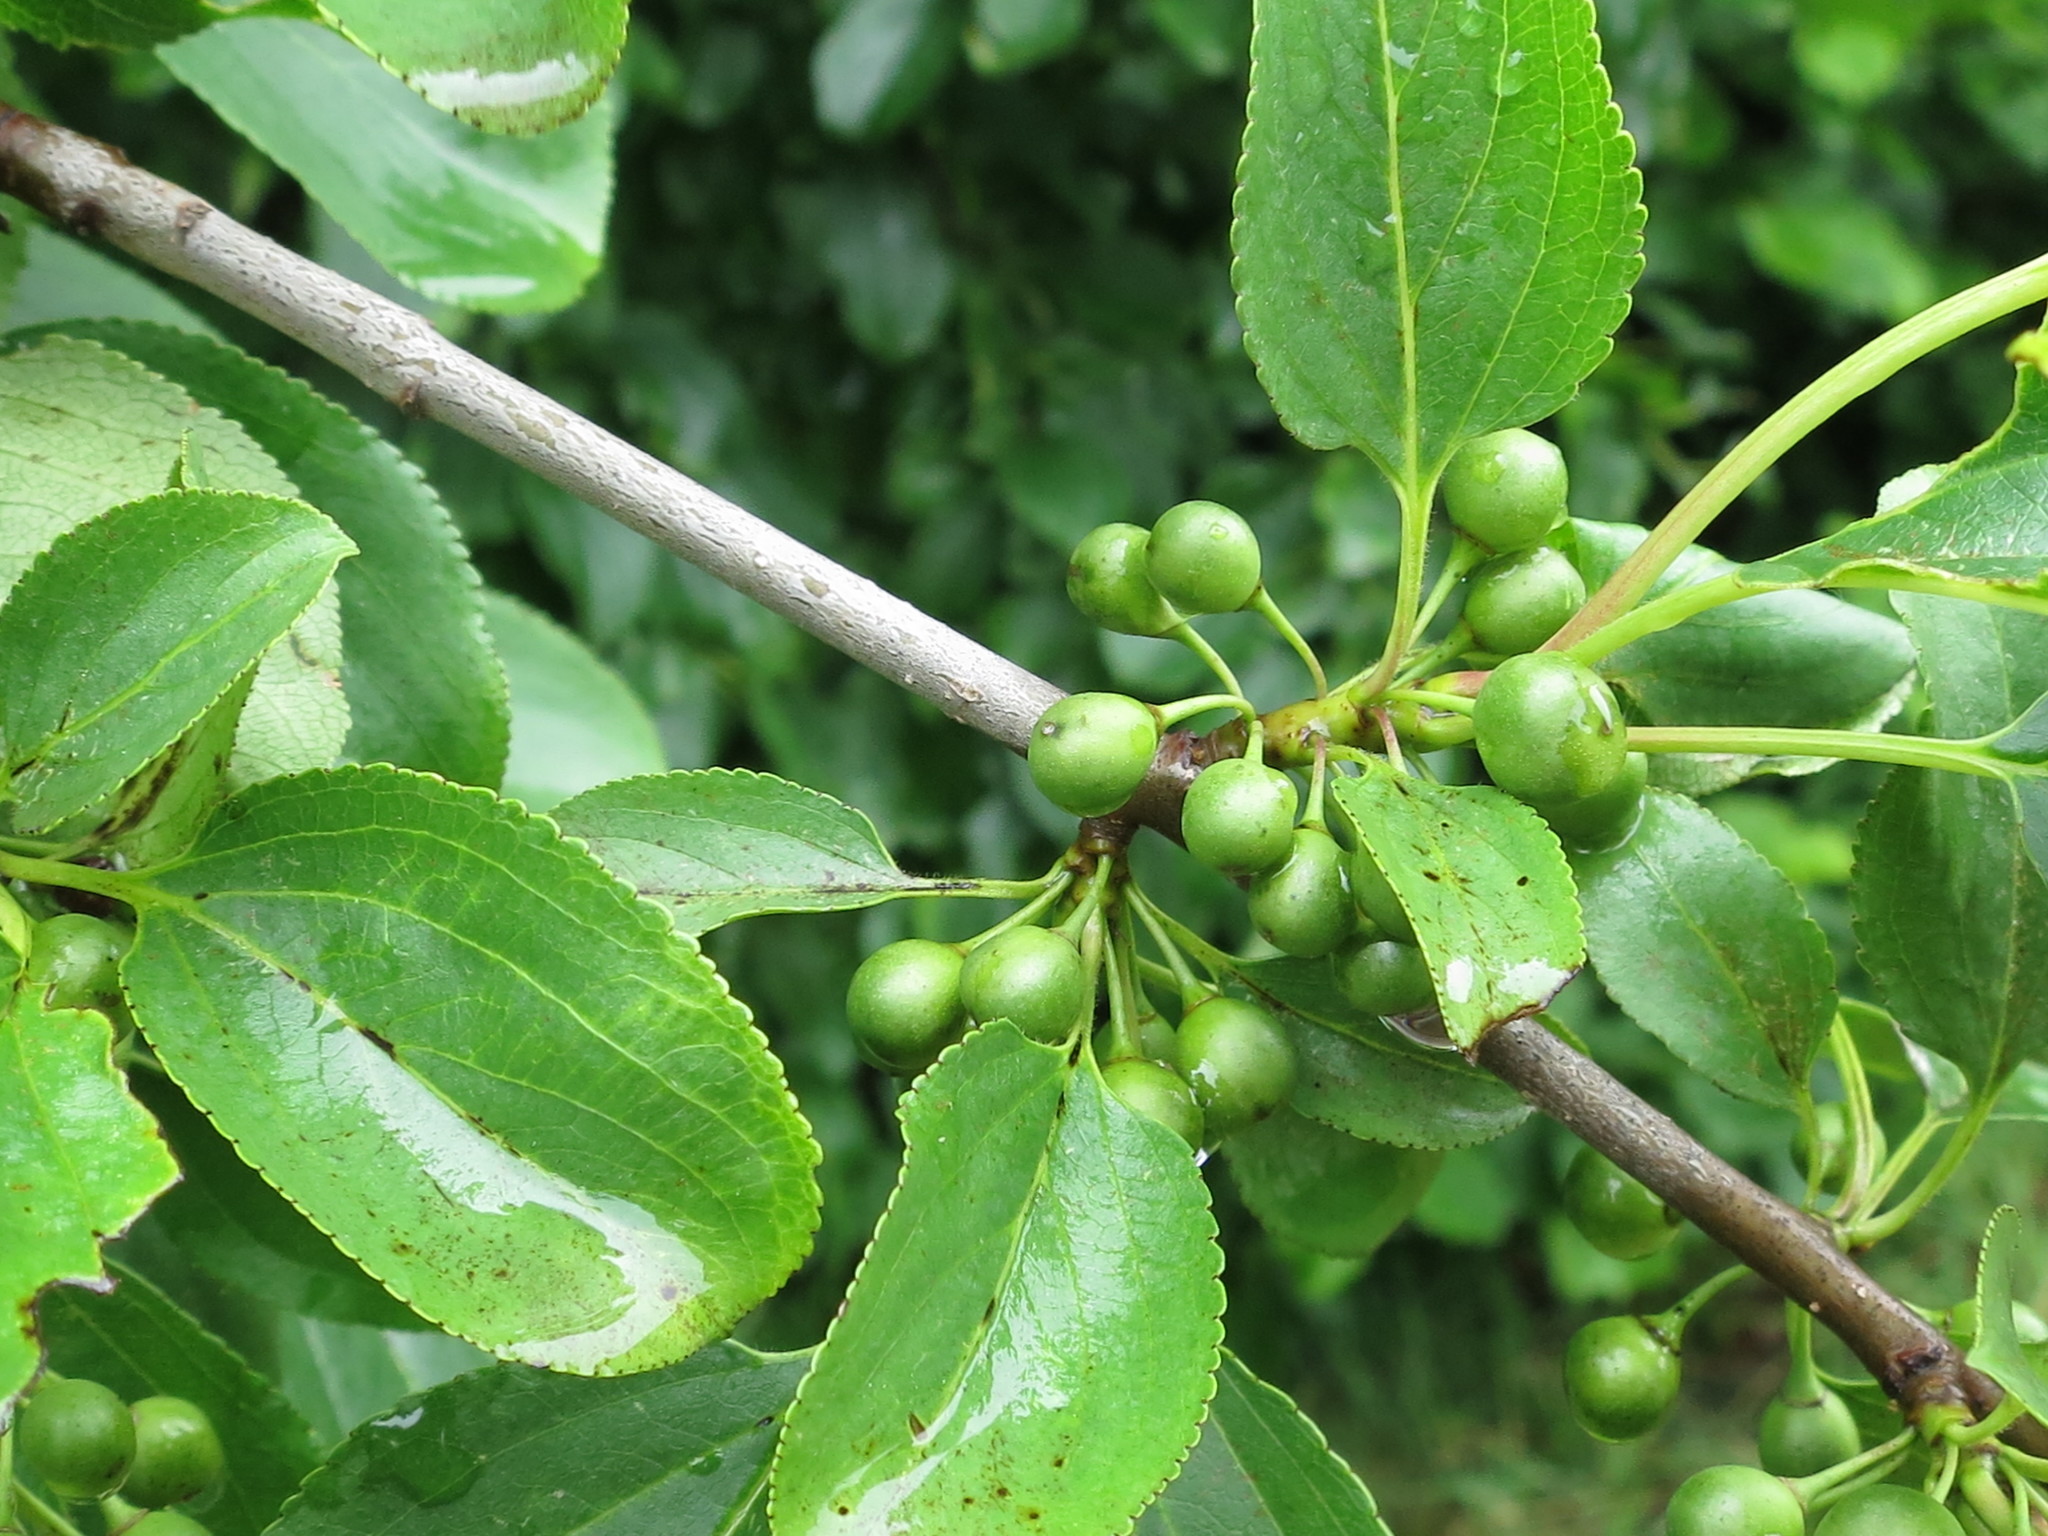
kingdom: Plantae
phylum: Tracheophyta
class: Magnoliopsida
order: Rosales
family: Rhamnaceae
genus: Rhamnus
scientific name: Rhamnus ussuriensis
